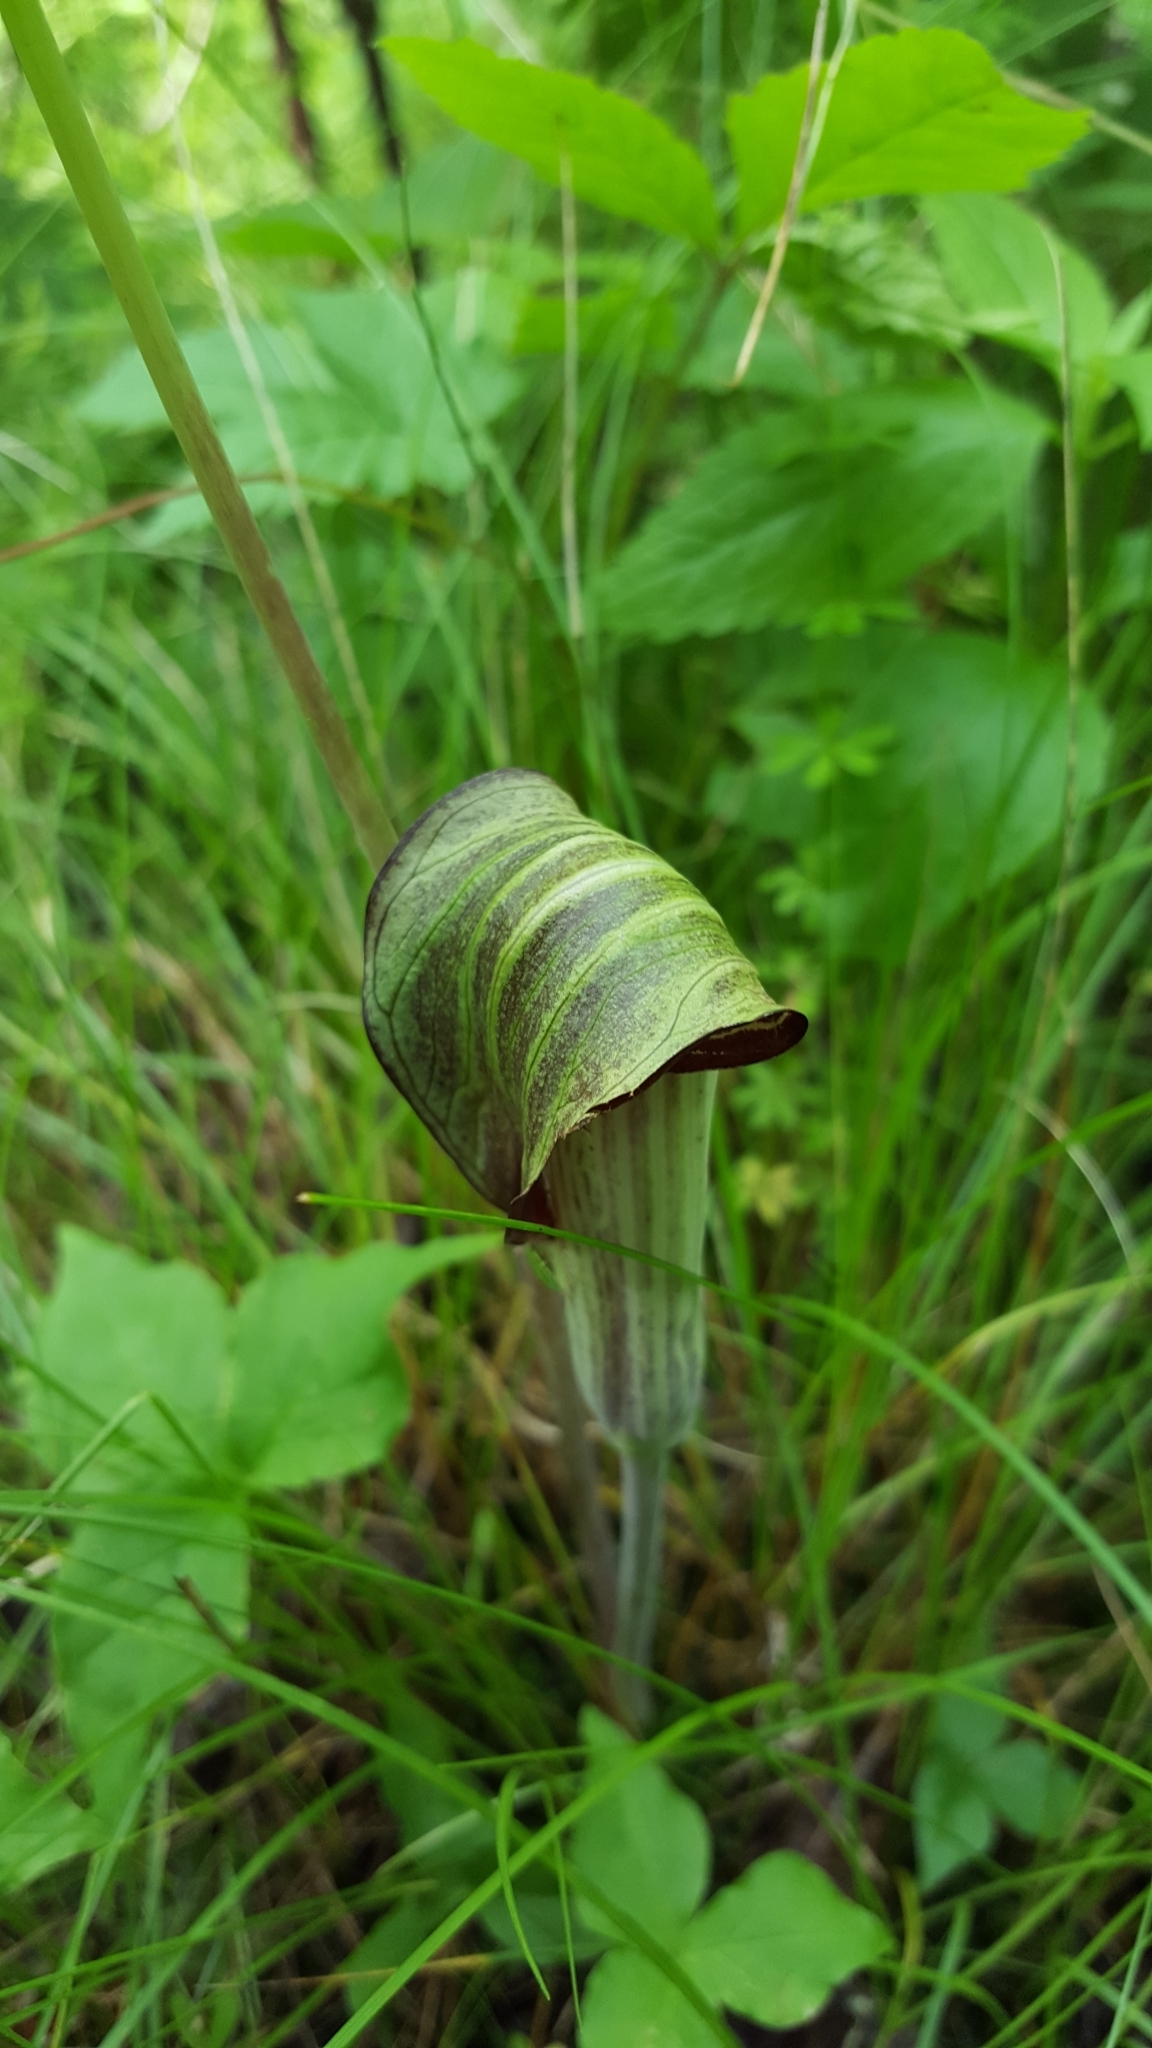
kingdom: Plantae
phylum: Tracheophyta
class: Liliopsida
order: Alismatales
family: Araceae
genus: Arisaema
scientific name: Arisaema triphyllum
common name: Jack-in-the-pulpit
